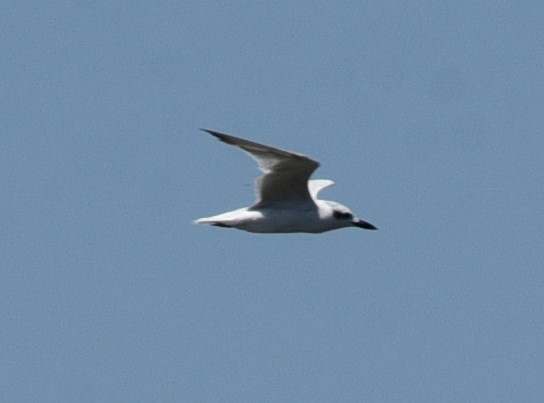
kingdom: Animalia
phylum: Chordata
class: Aves
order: Charadriiformes
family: Laridae
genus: Gelochelidon
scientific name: Gelochelidon nilotica
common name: Gull-billed tern
